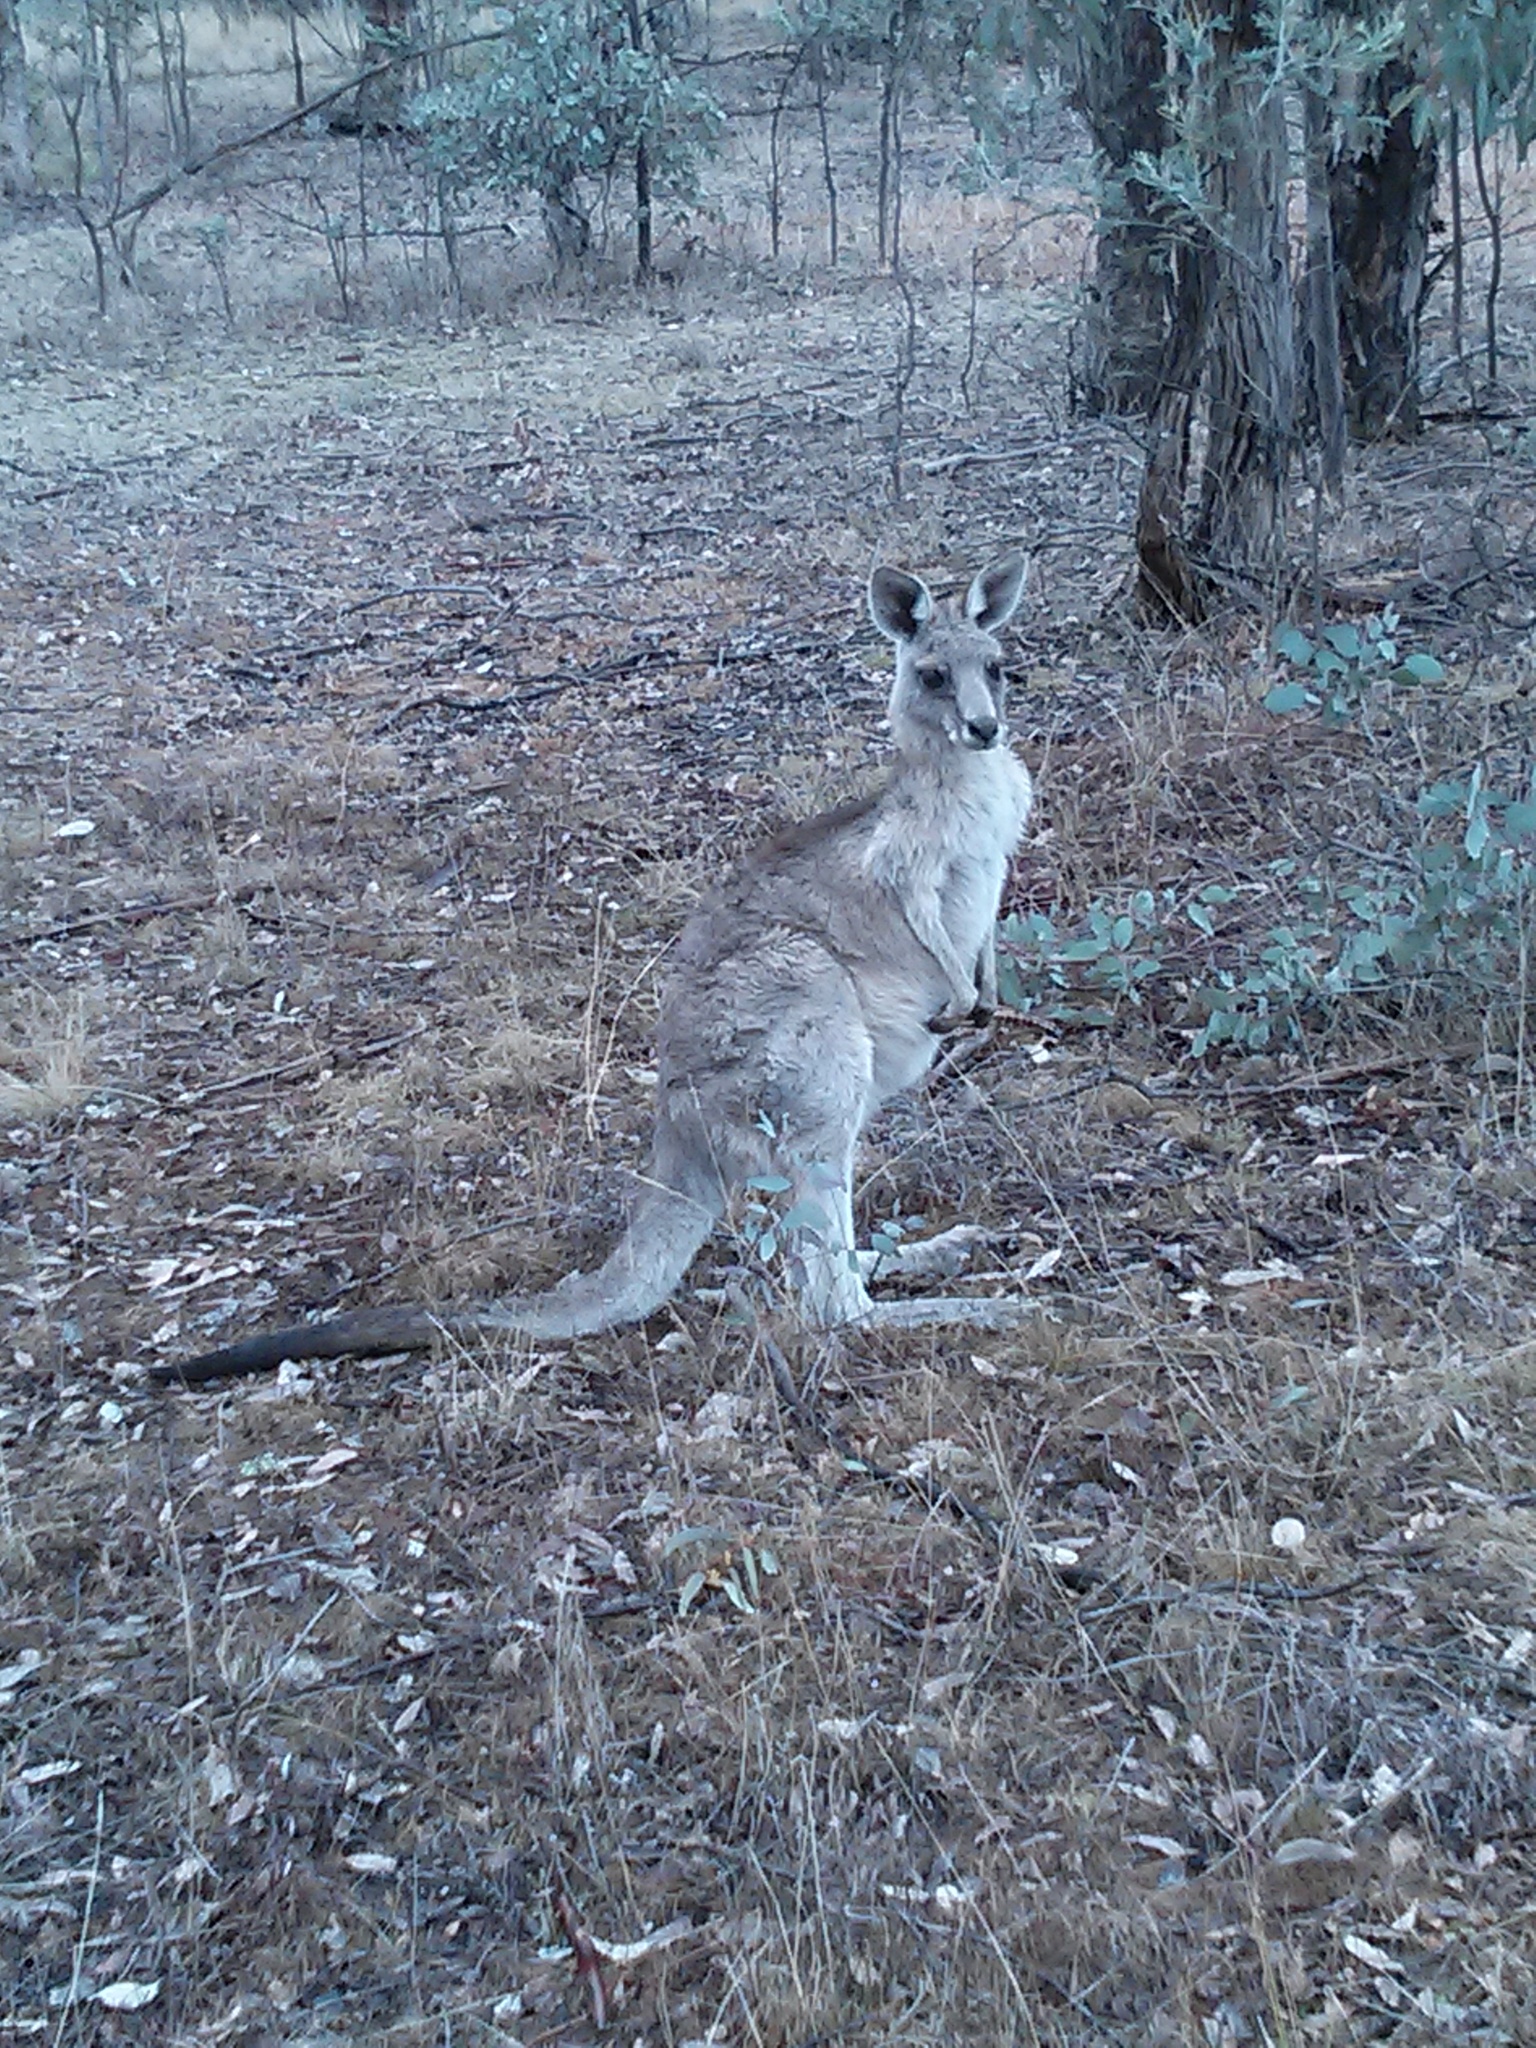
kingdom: Animalia
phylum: Chordata
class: Mammalia
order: Diprotodontia
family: Macropodidae
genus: Macropus
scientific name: Macropus giganteus
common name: Eastern grey kangaroo
